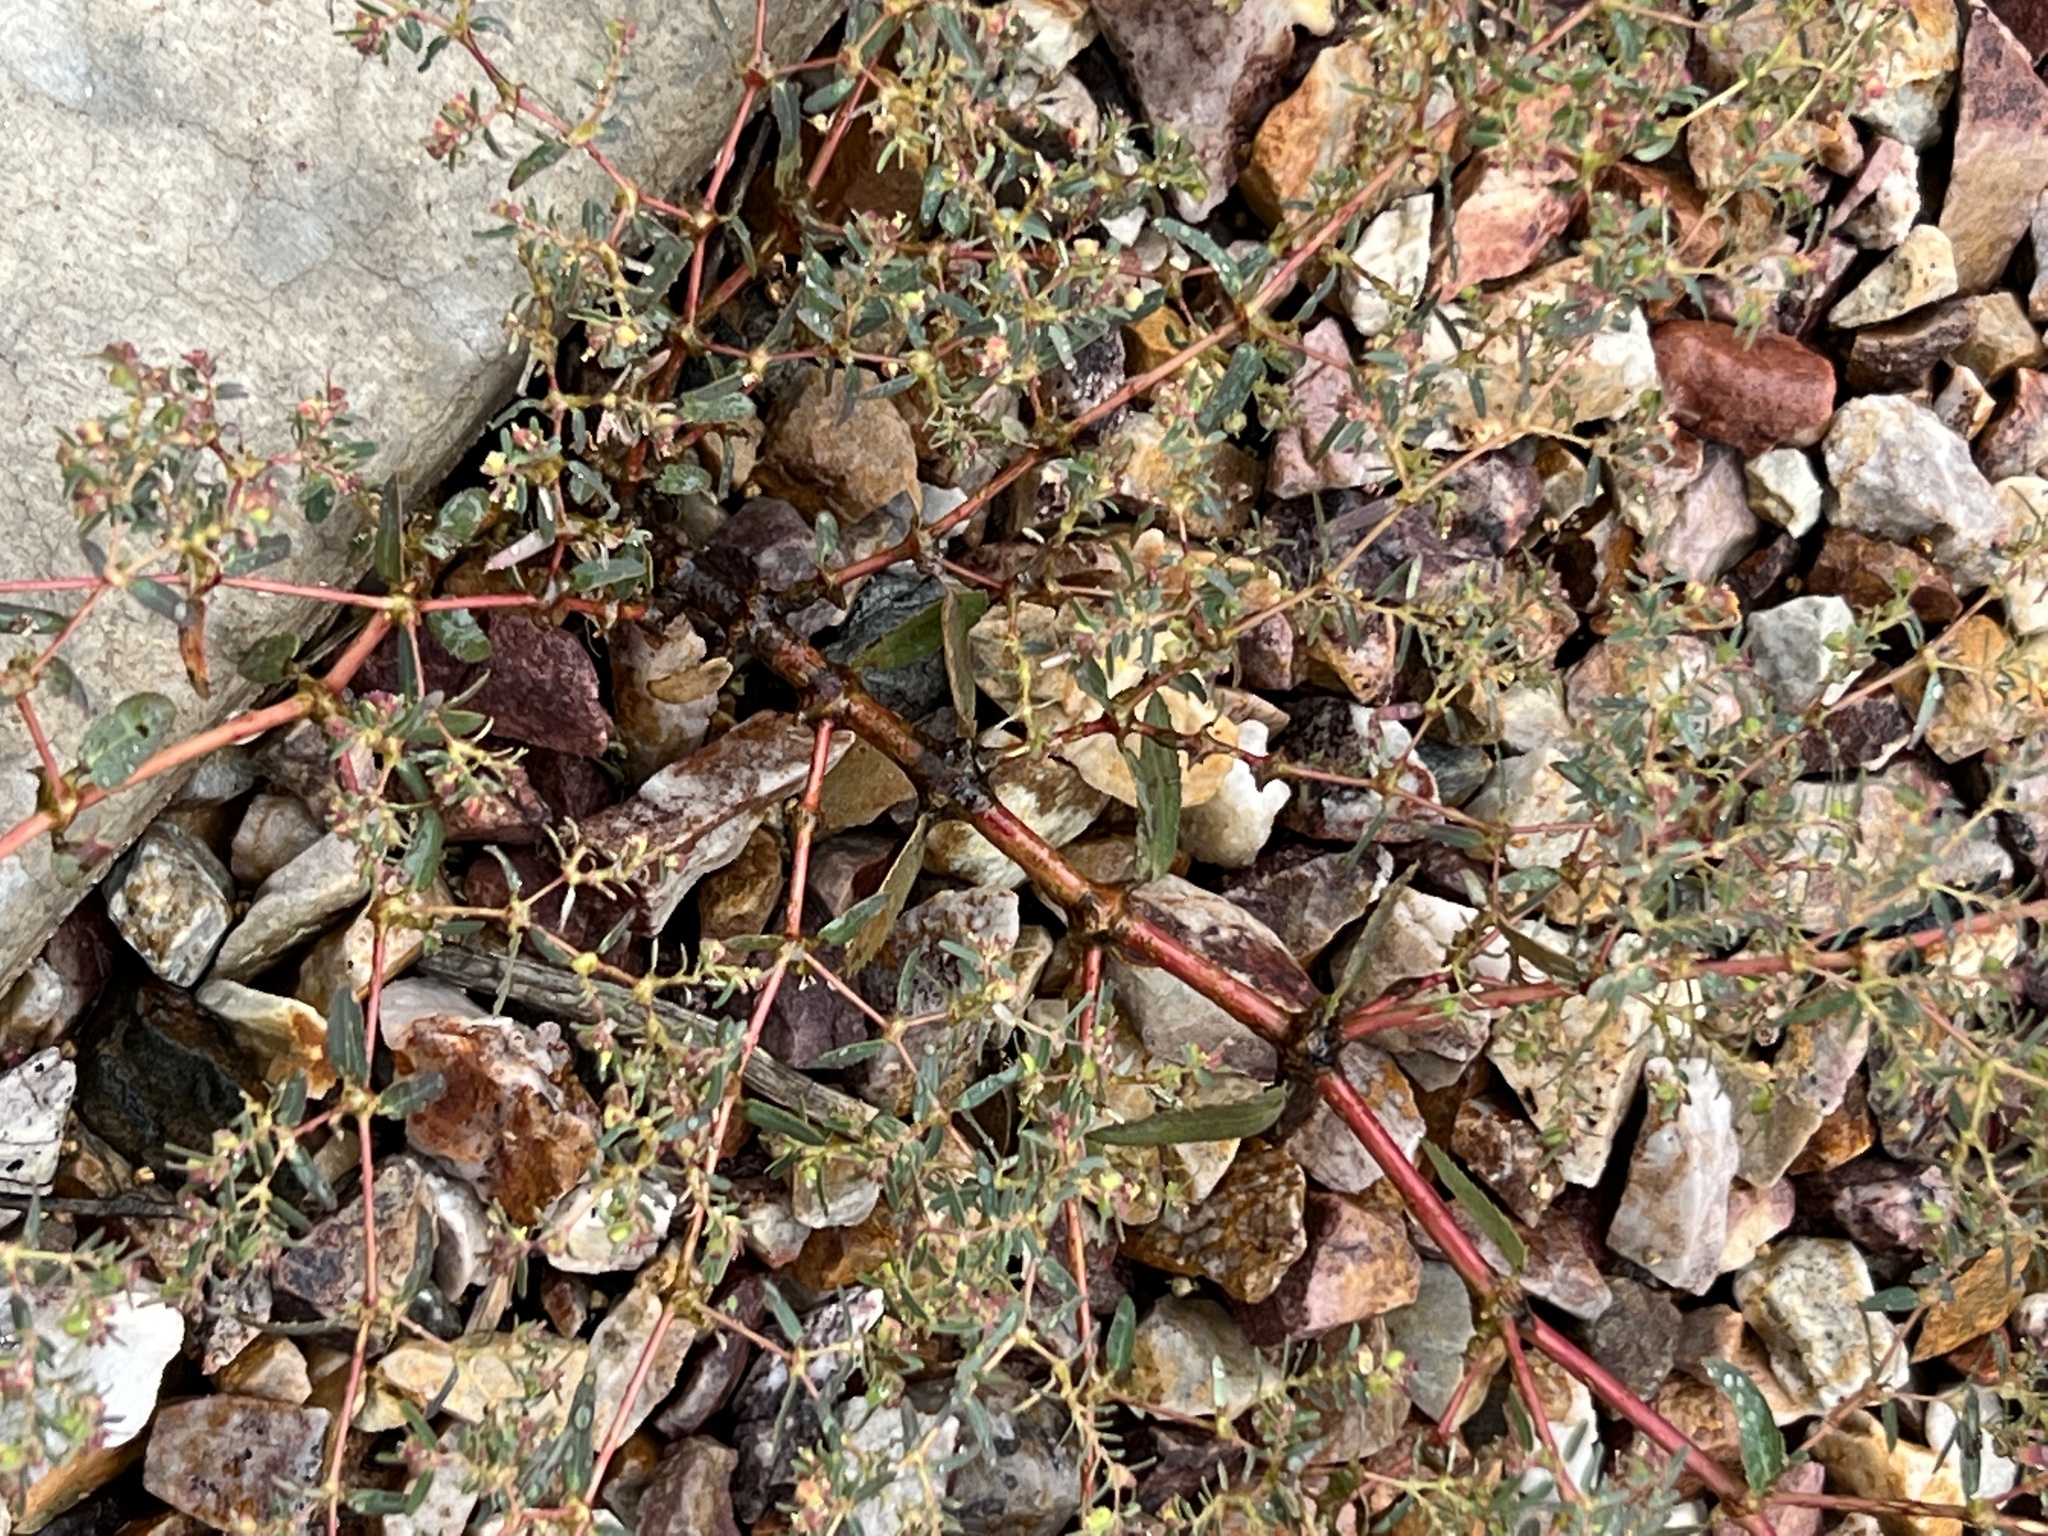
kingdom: Plantae
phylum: Tracheophyta
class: Magnoliopsida
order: Malpighiales
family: Euphorbiaceae
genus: Euphorbia
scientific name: Euphorbia hyssopifolia
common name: Hyssopleaf sandmat
